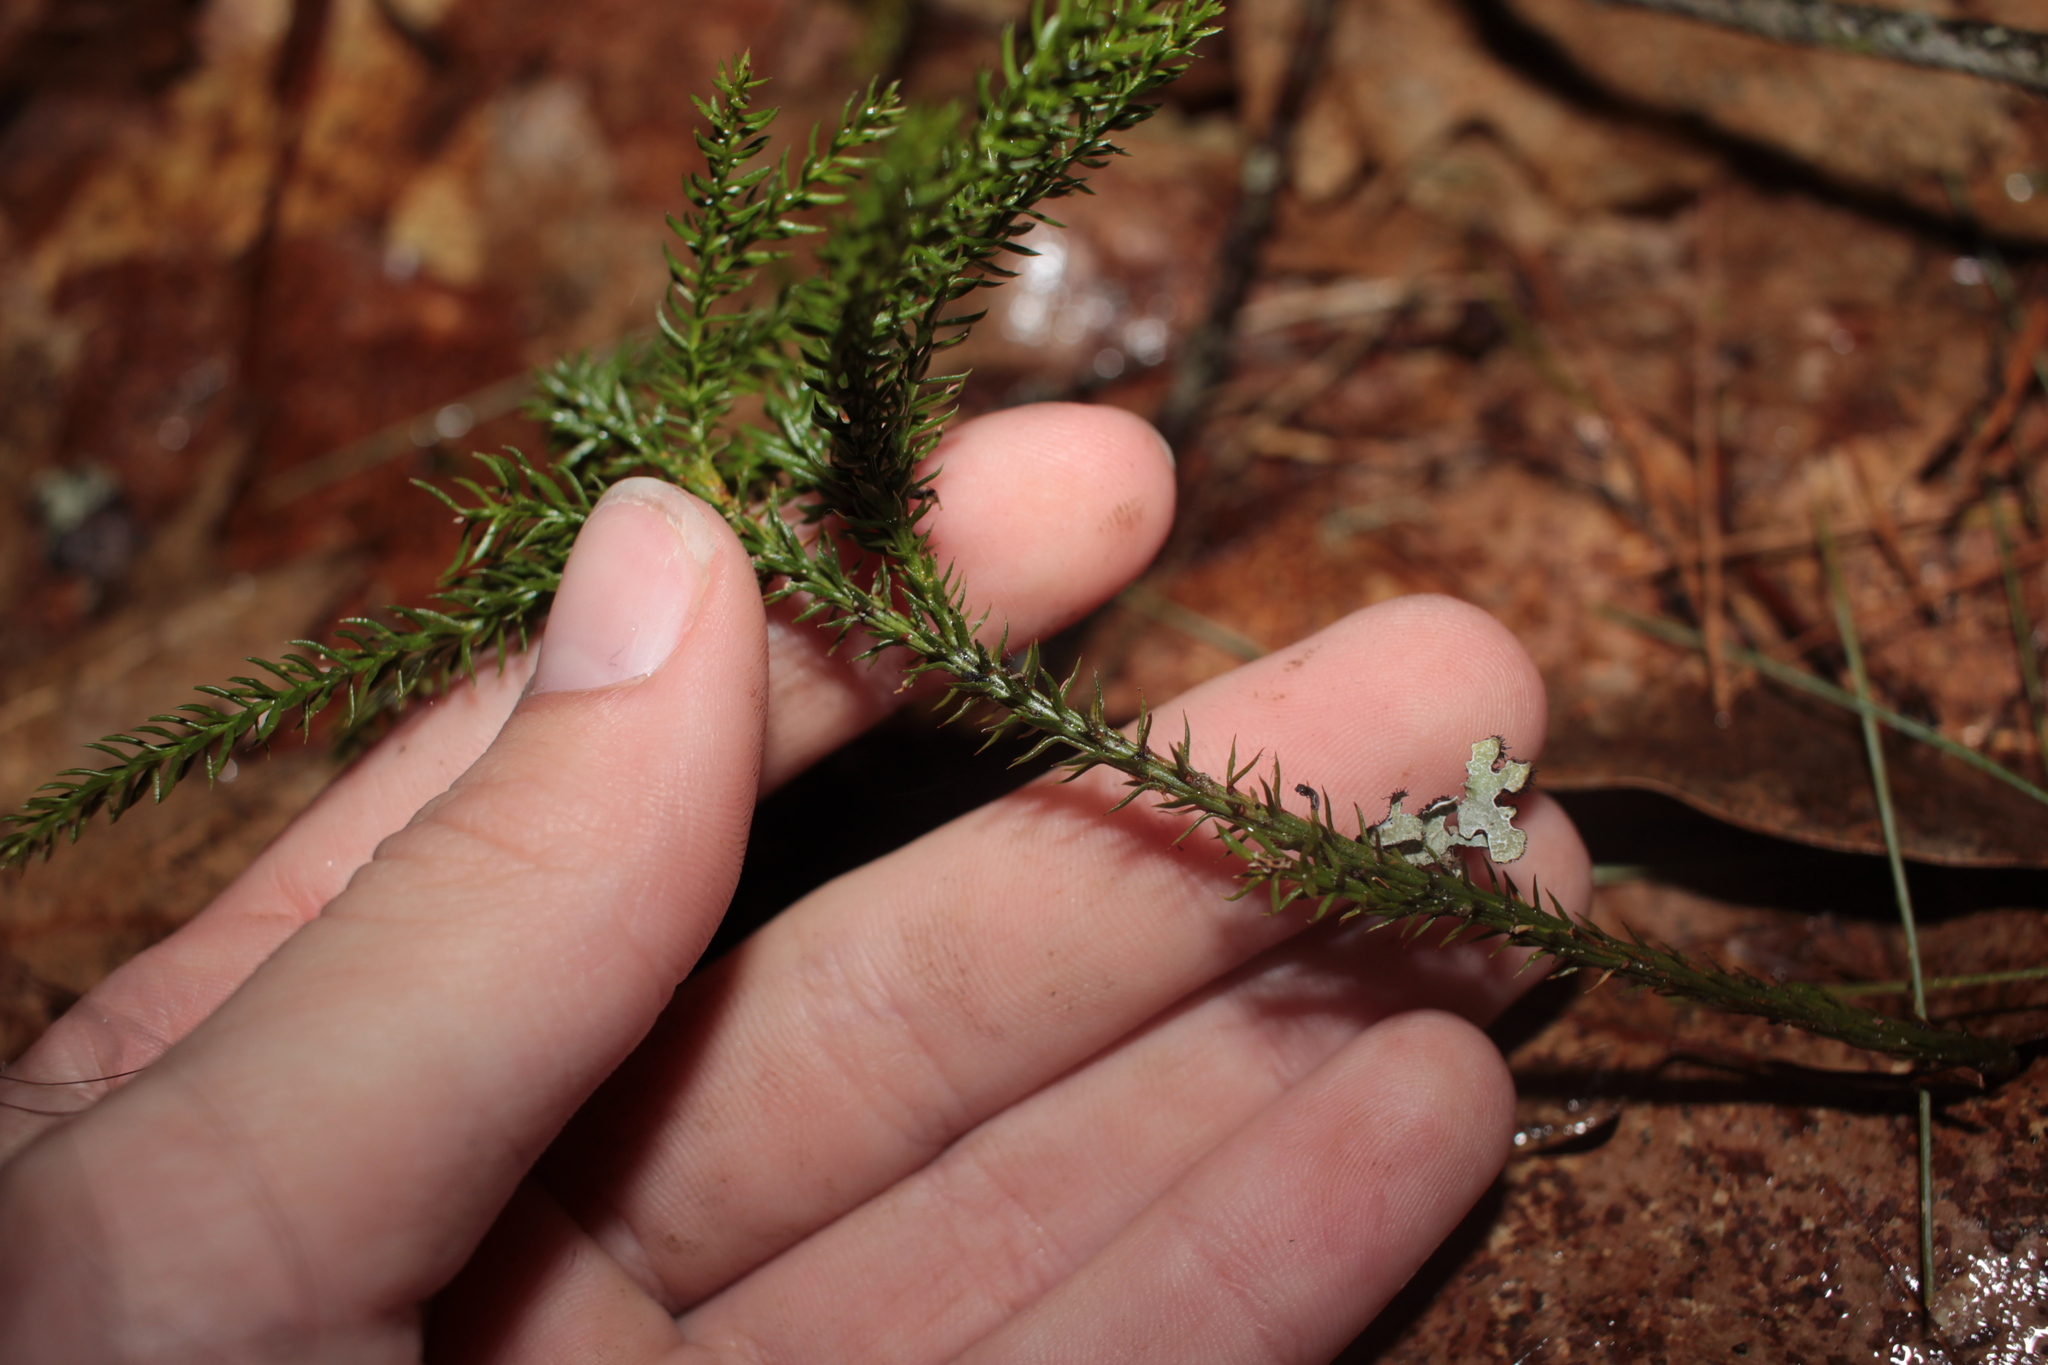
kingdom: Plantae
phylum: Tracheophyta
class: Lycopodiopsida
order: Lycopodiales
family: Lycopodiaceae
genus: Dendrolycopodium
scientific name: Dendrolycopodium dendroideum
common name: Northern tree-clubmoss
